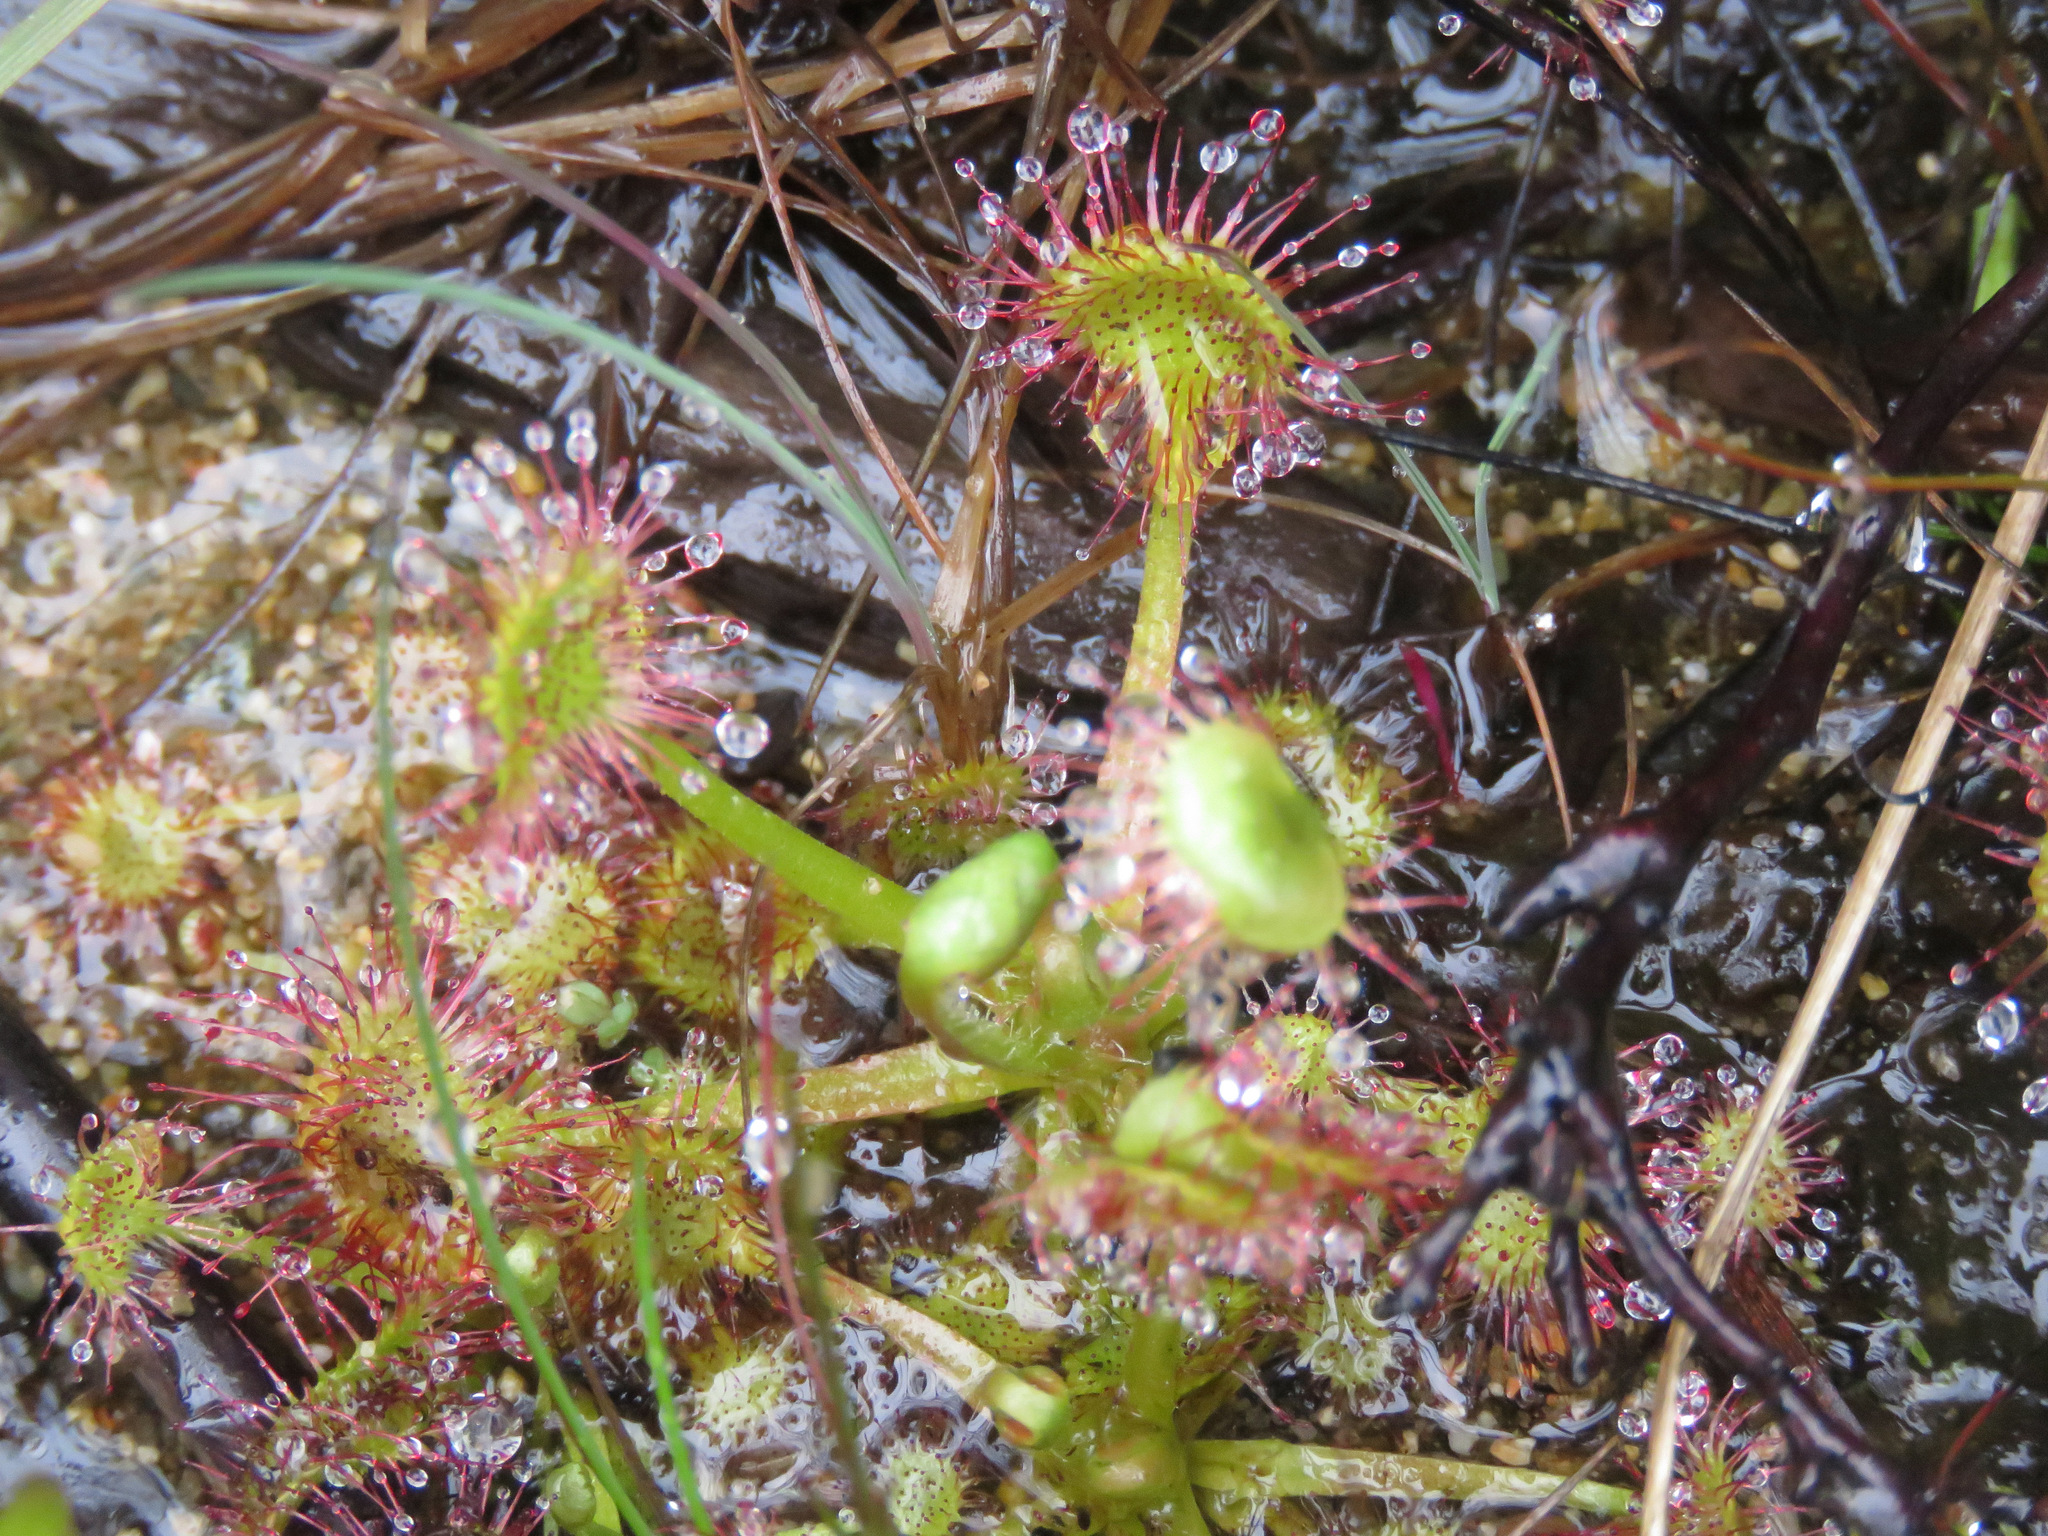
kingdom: Plantae
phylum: Tracheophyta
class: Magnoliopsida
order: Caryophyllales
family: Droseraceae
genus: Drosera
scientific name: Drosera rotundifolia
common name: Round-leaved sundew
